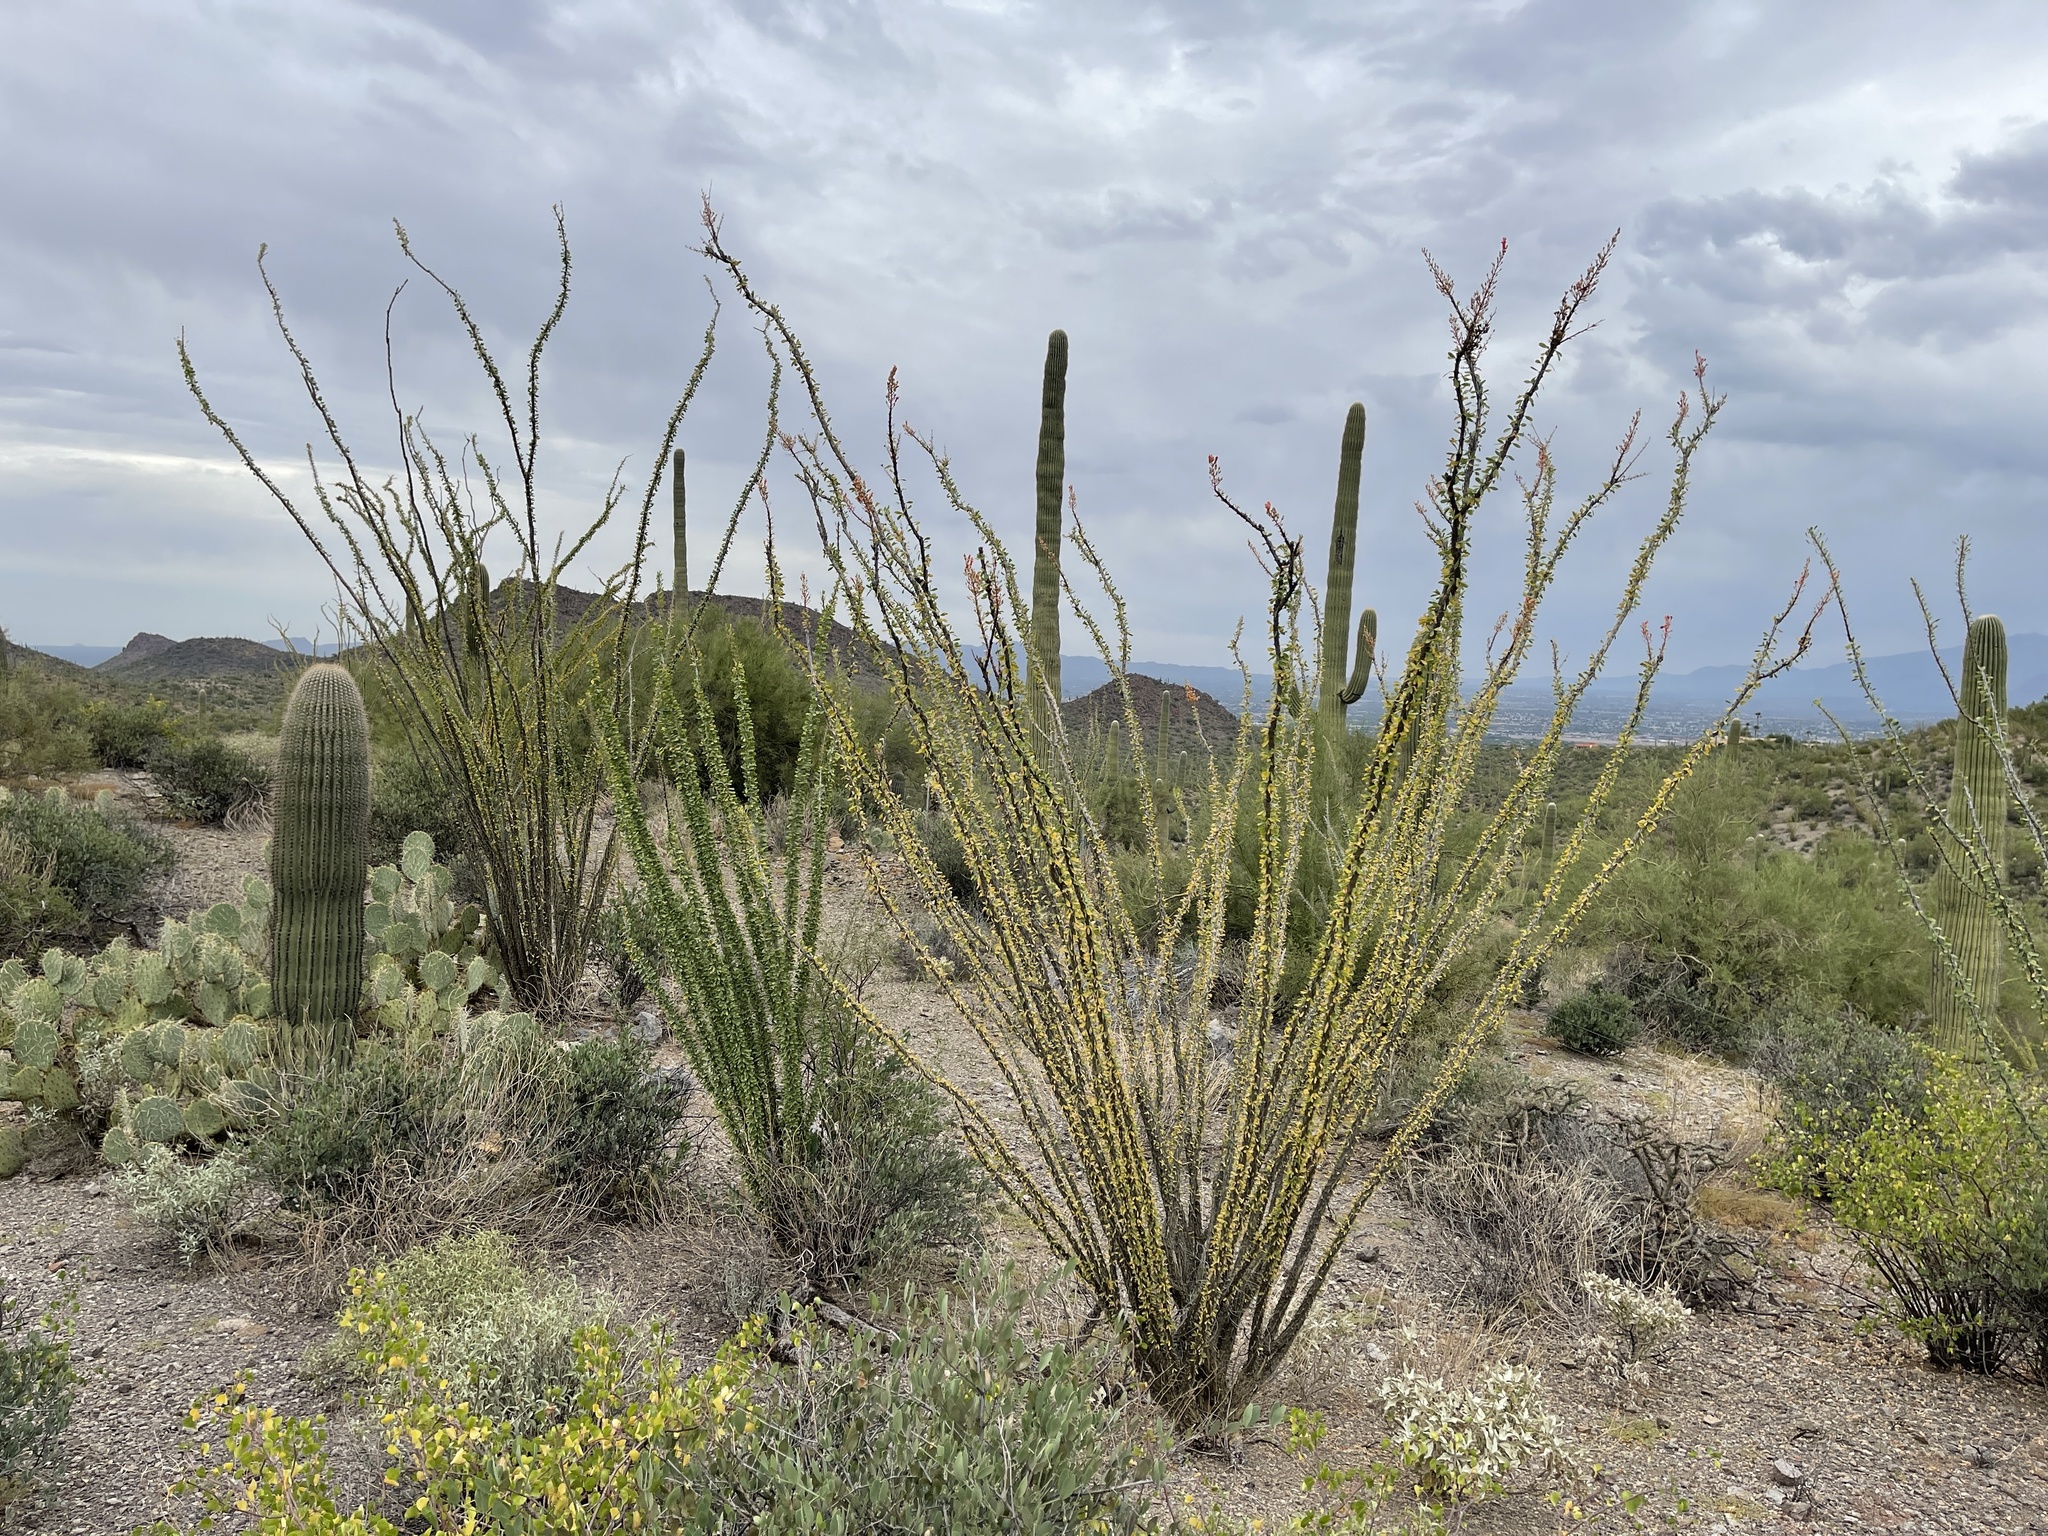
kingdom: Plantae
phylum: Tracheophyta
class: Magnoliopsida
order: Ericales
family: Fouquieriaceae
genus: Fouquieria
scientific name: Fouquieria splendens
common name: Vine-cactus
